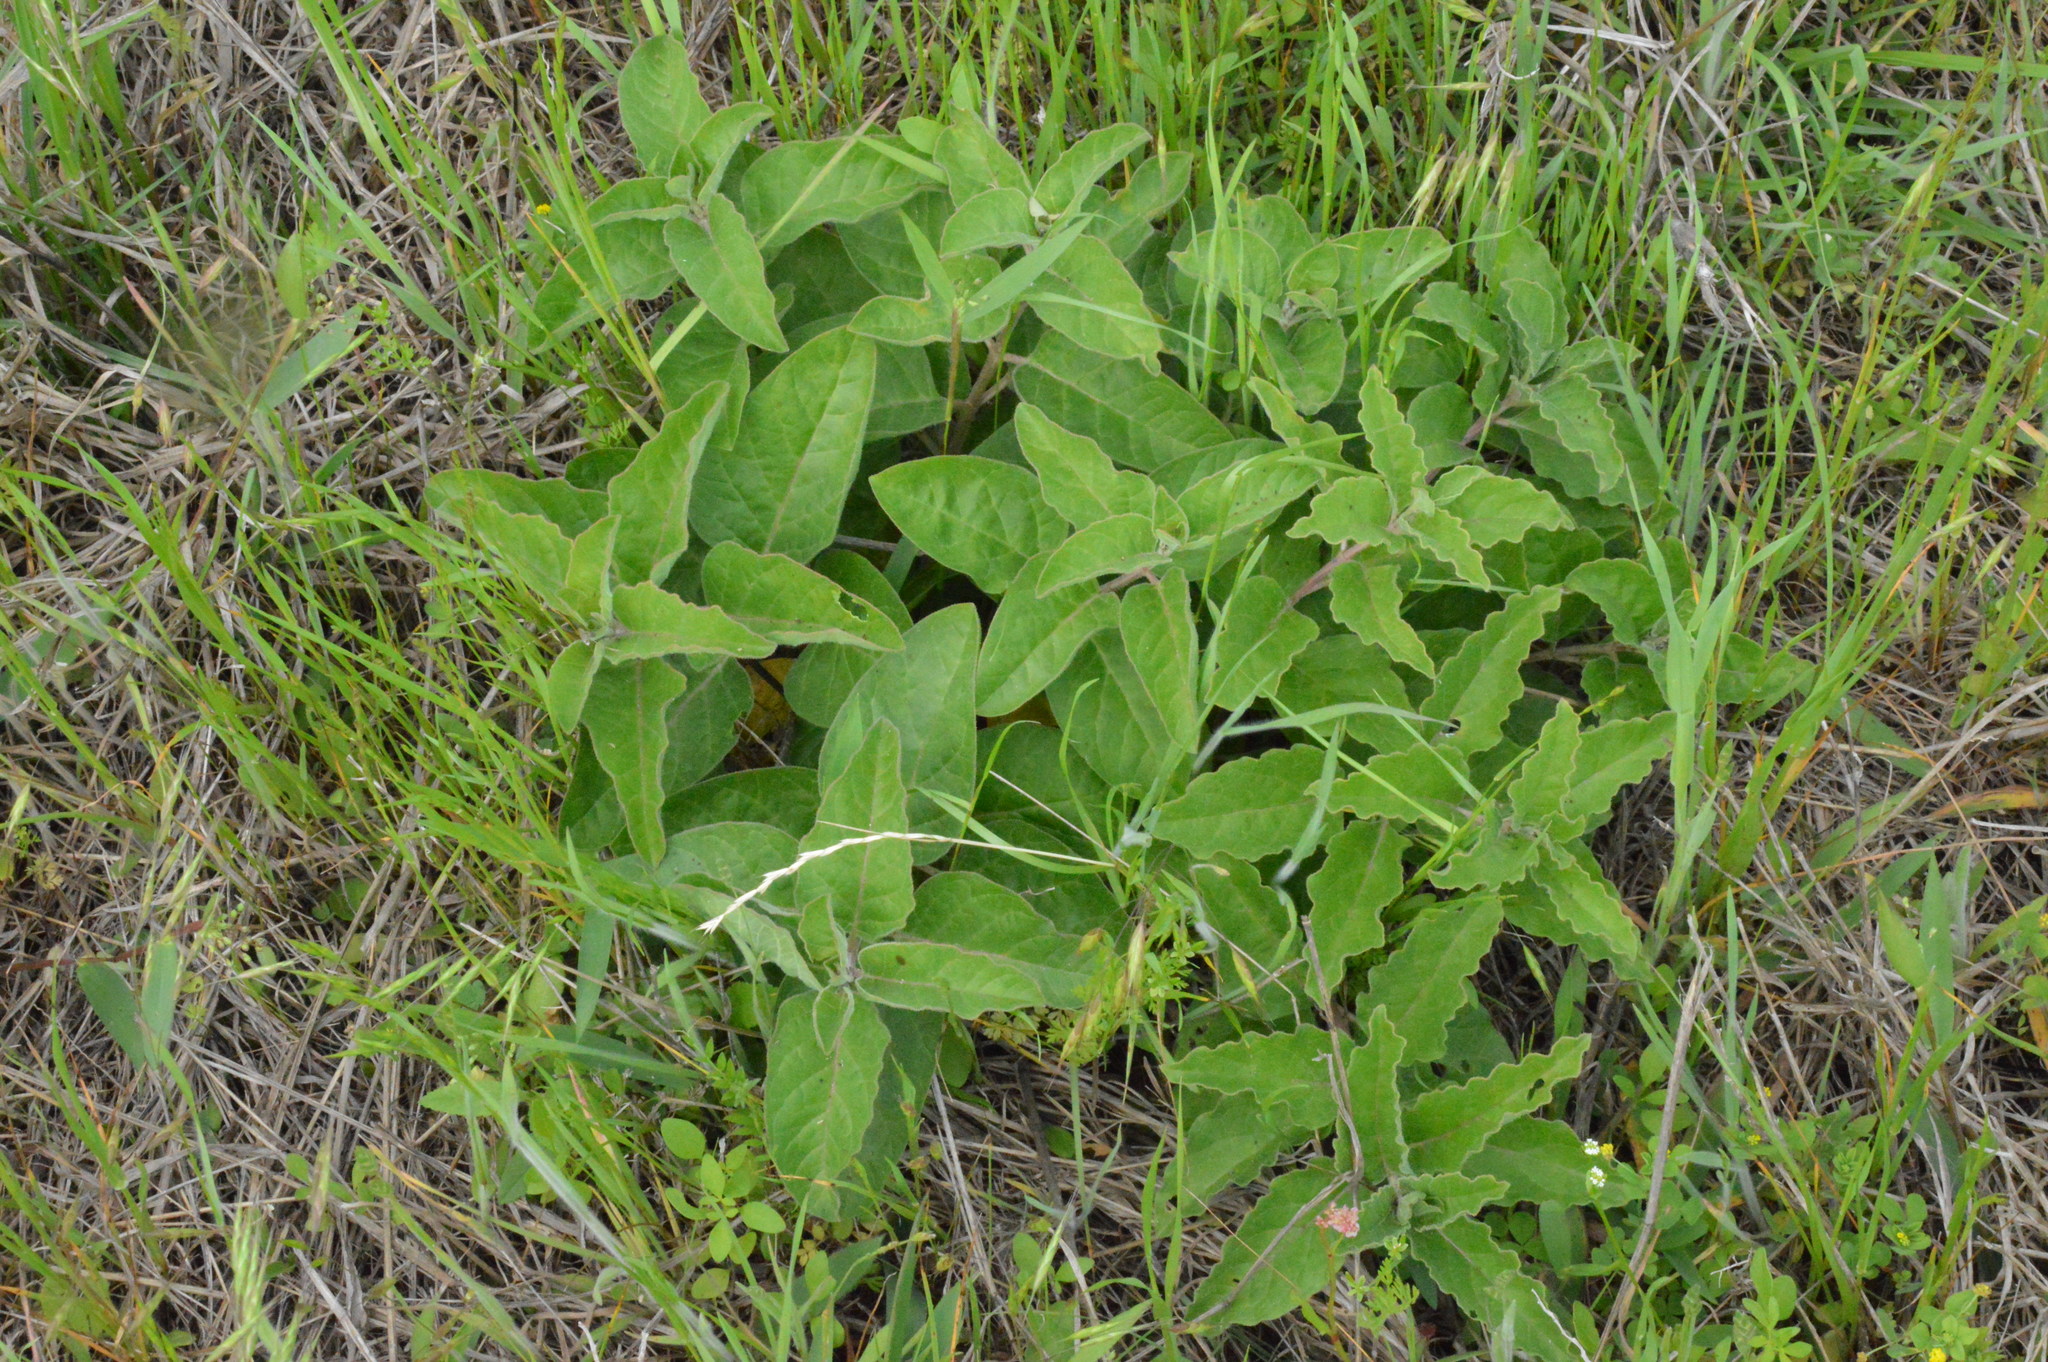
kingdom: Plantae
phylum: Tracheophyta
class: Magnoliopsida
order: Gentianales
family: Apocynaceae
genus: Asclepias
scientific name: Asclepias oenotheroides
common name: Zizotes milkweed
